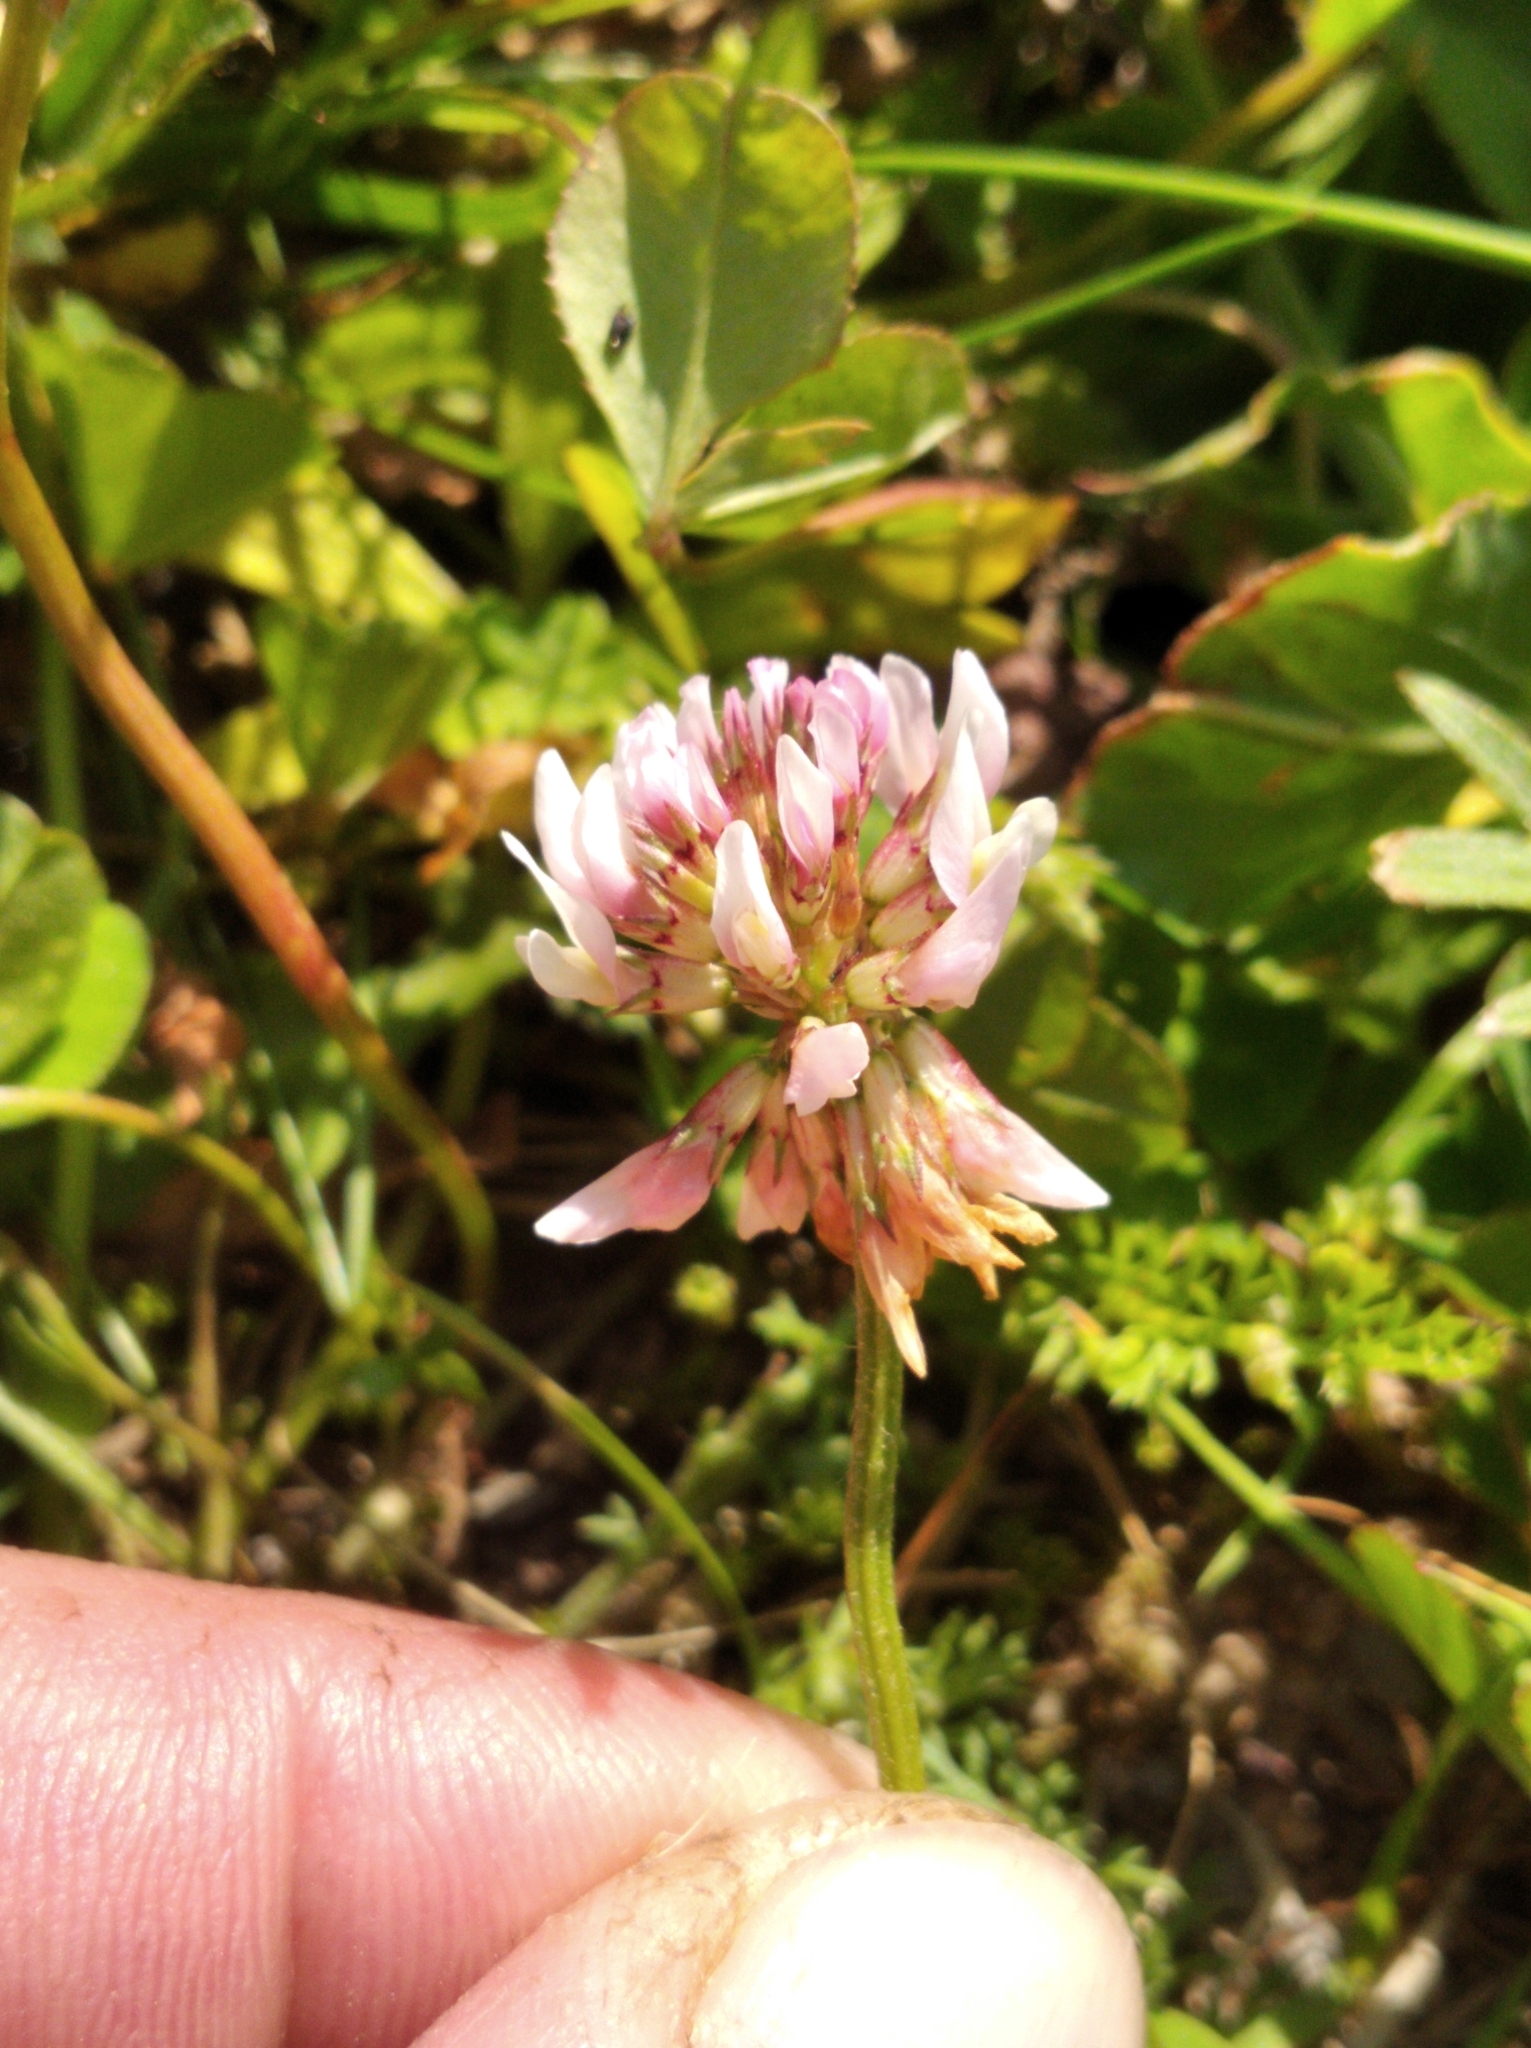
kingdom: Plantae
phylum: Tracheophyta
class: Magnoliopsida
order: Fabales
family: Fabaceae
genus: Trifolium
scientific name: Trifolium repens
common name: White clover
